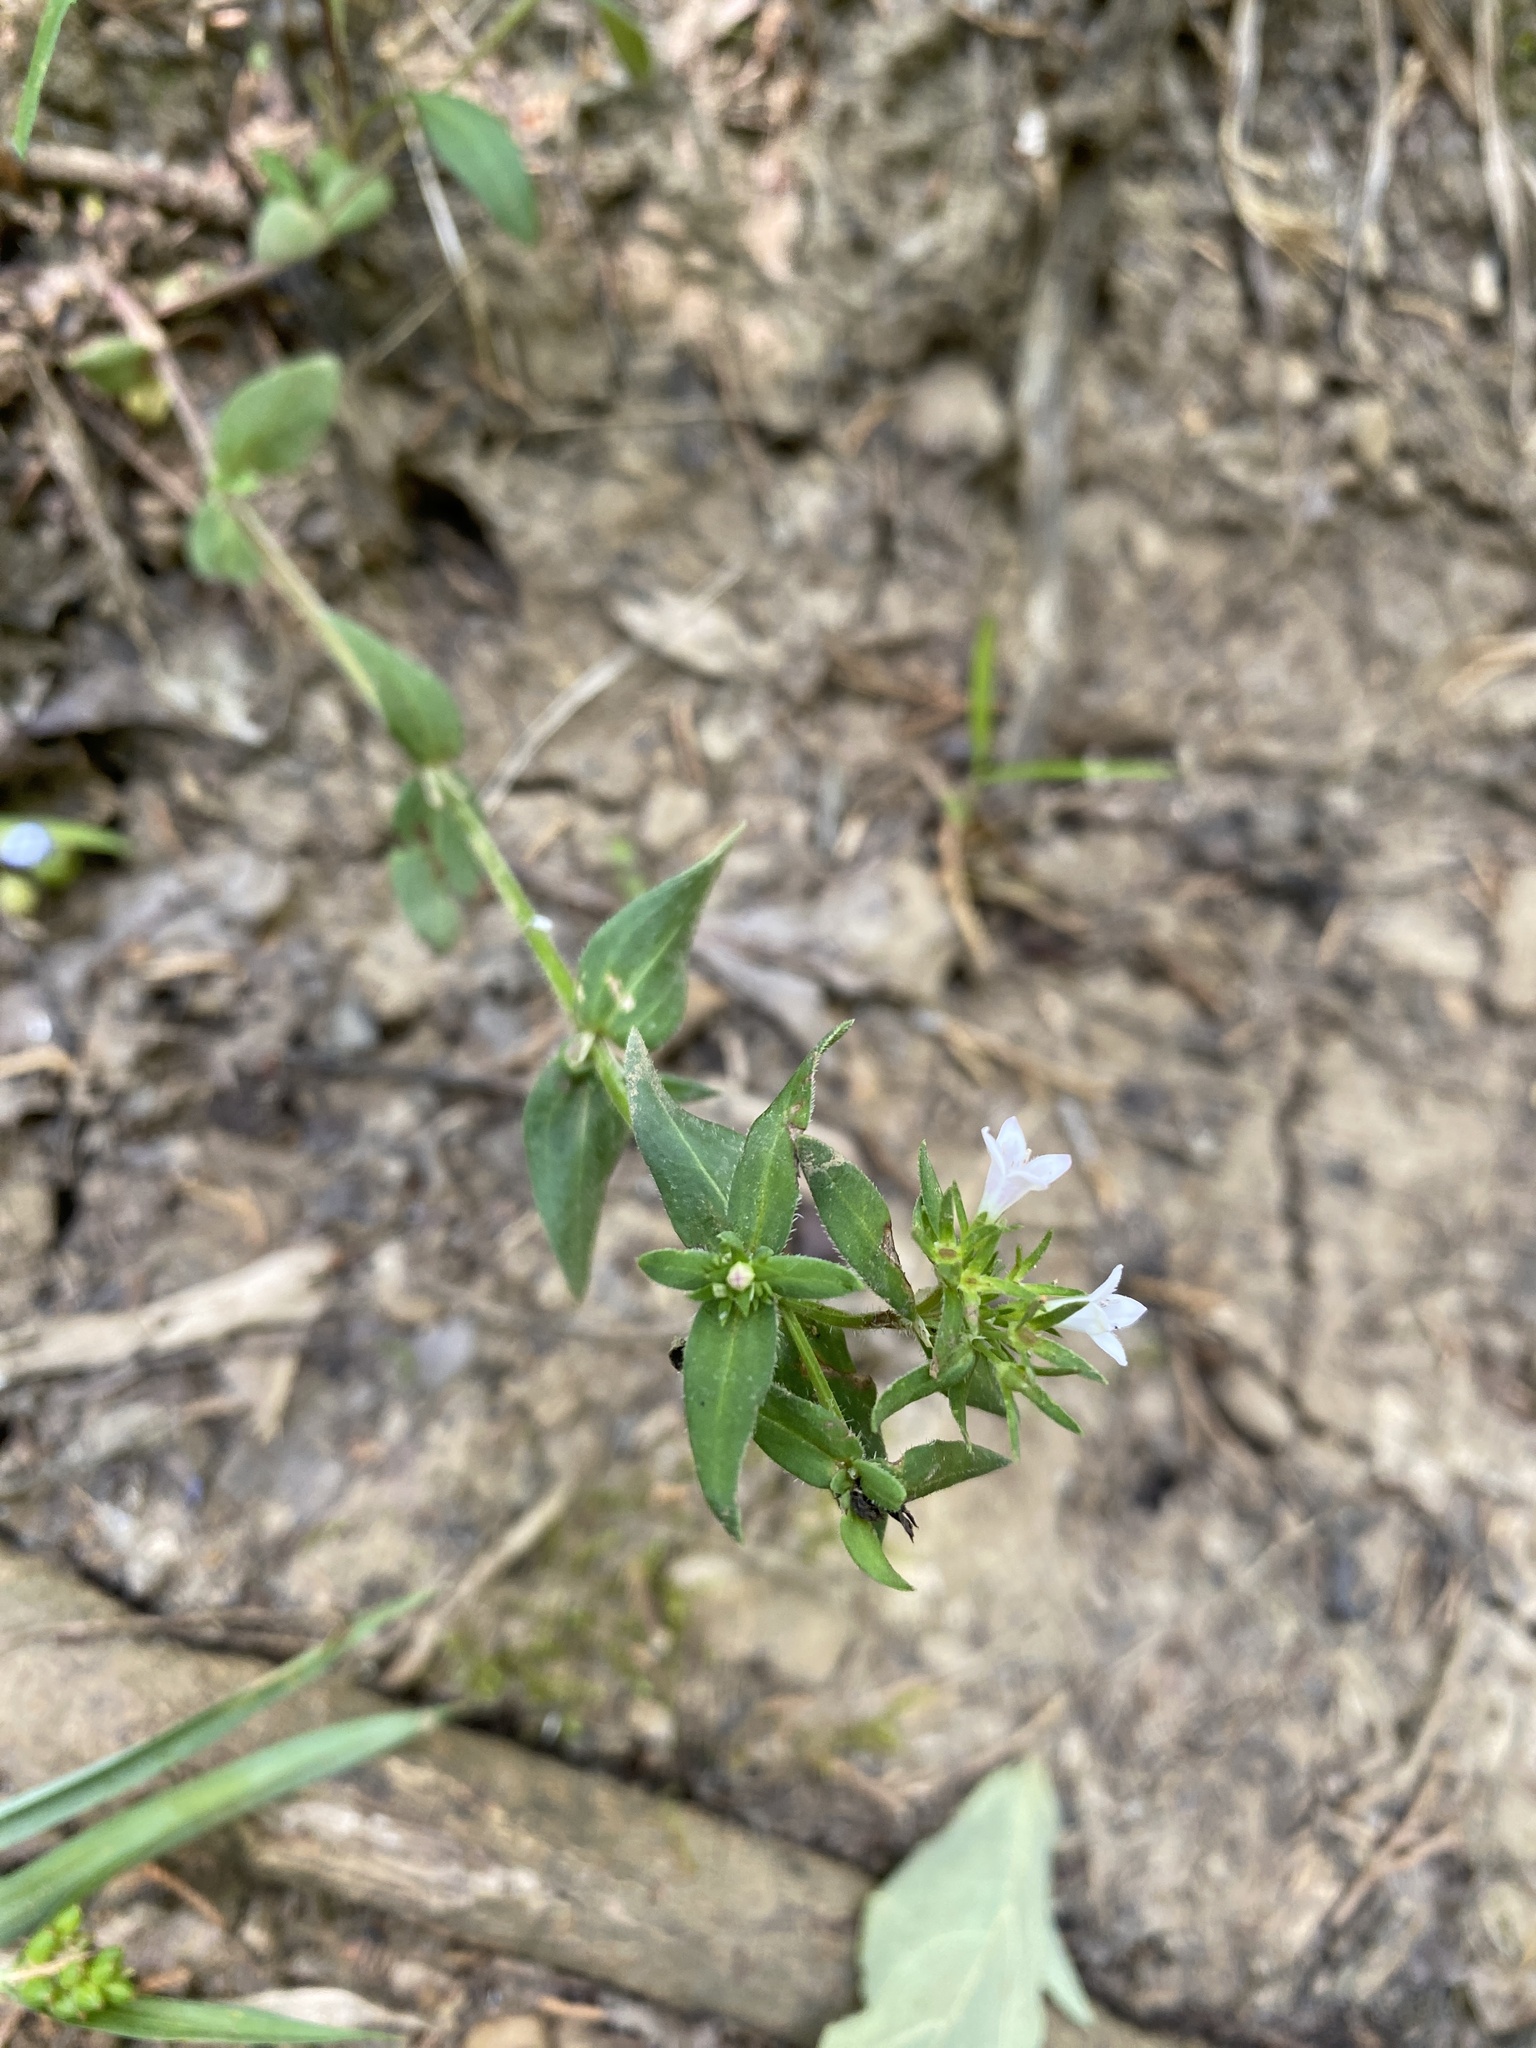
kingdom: Plantae
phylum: Tracheophyta
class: Magnoliopsida
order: Gentianales
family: Rubiaceae
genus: Houstonia
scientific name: Houstonia purpurea
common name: Summer bluet
